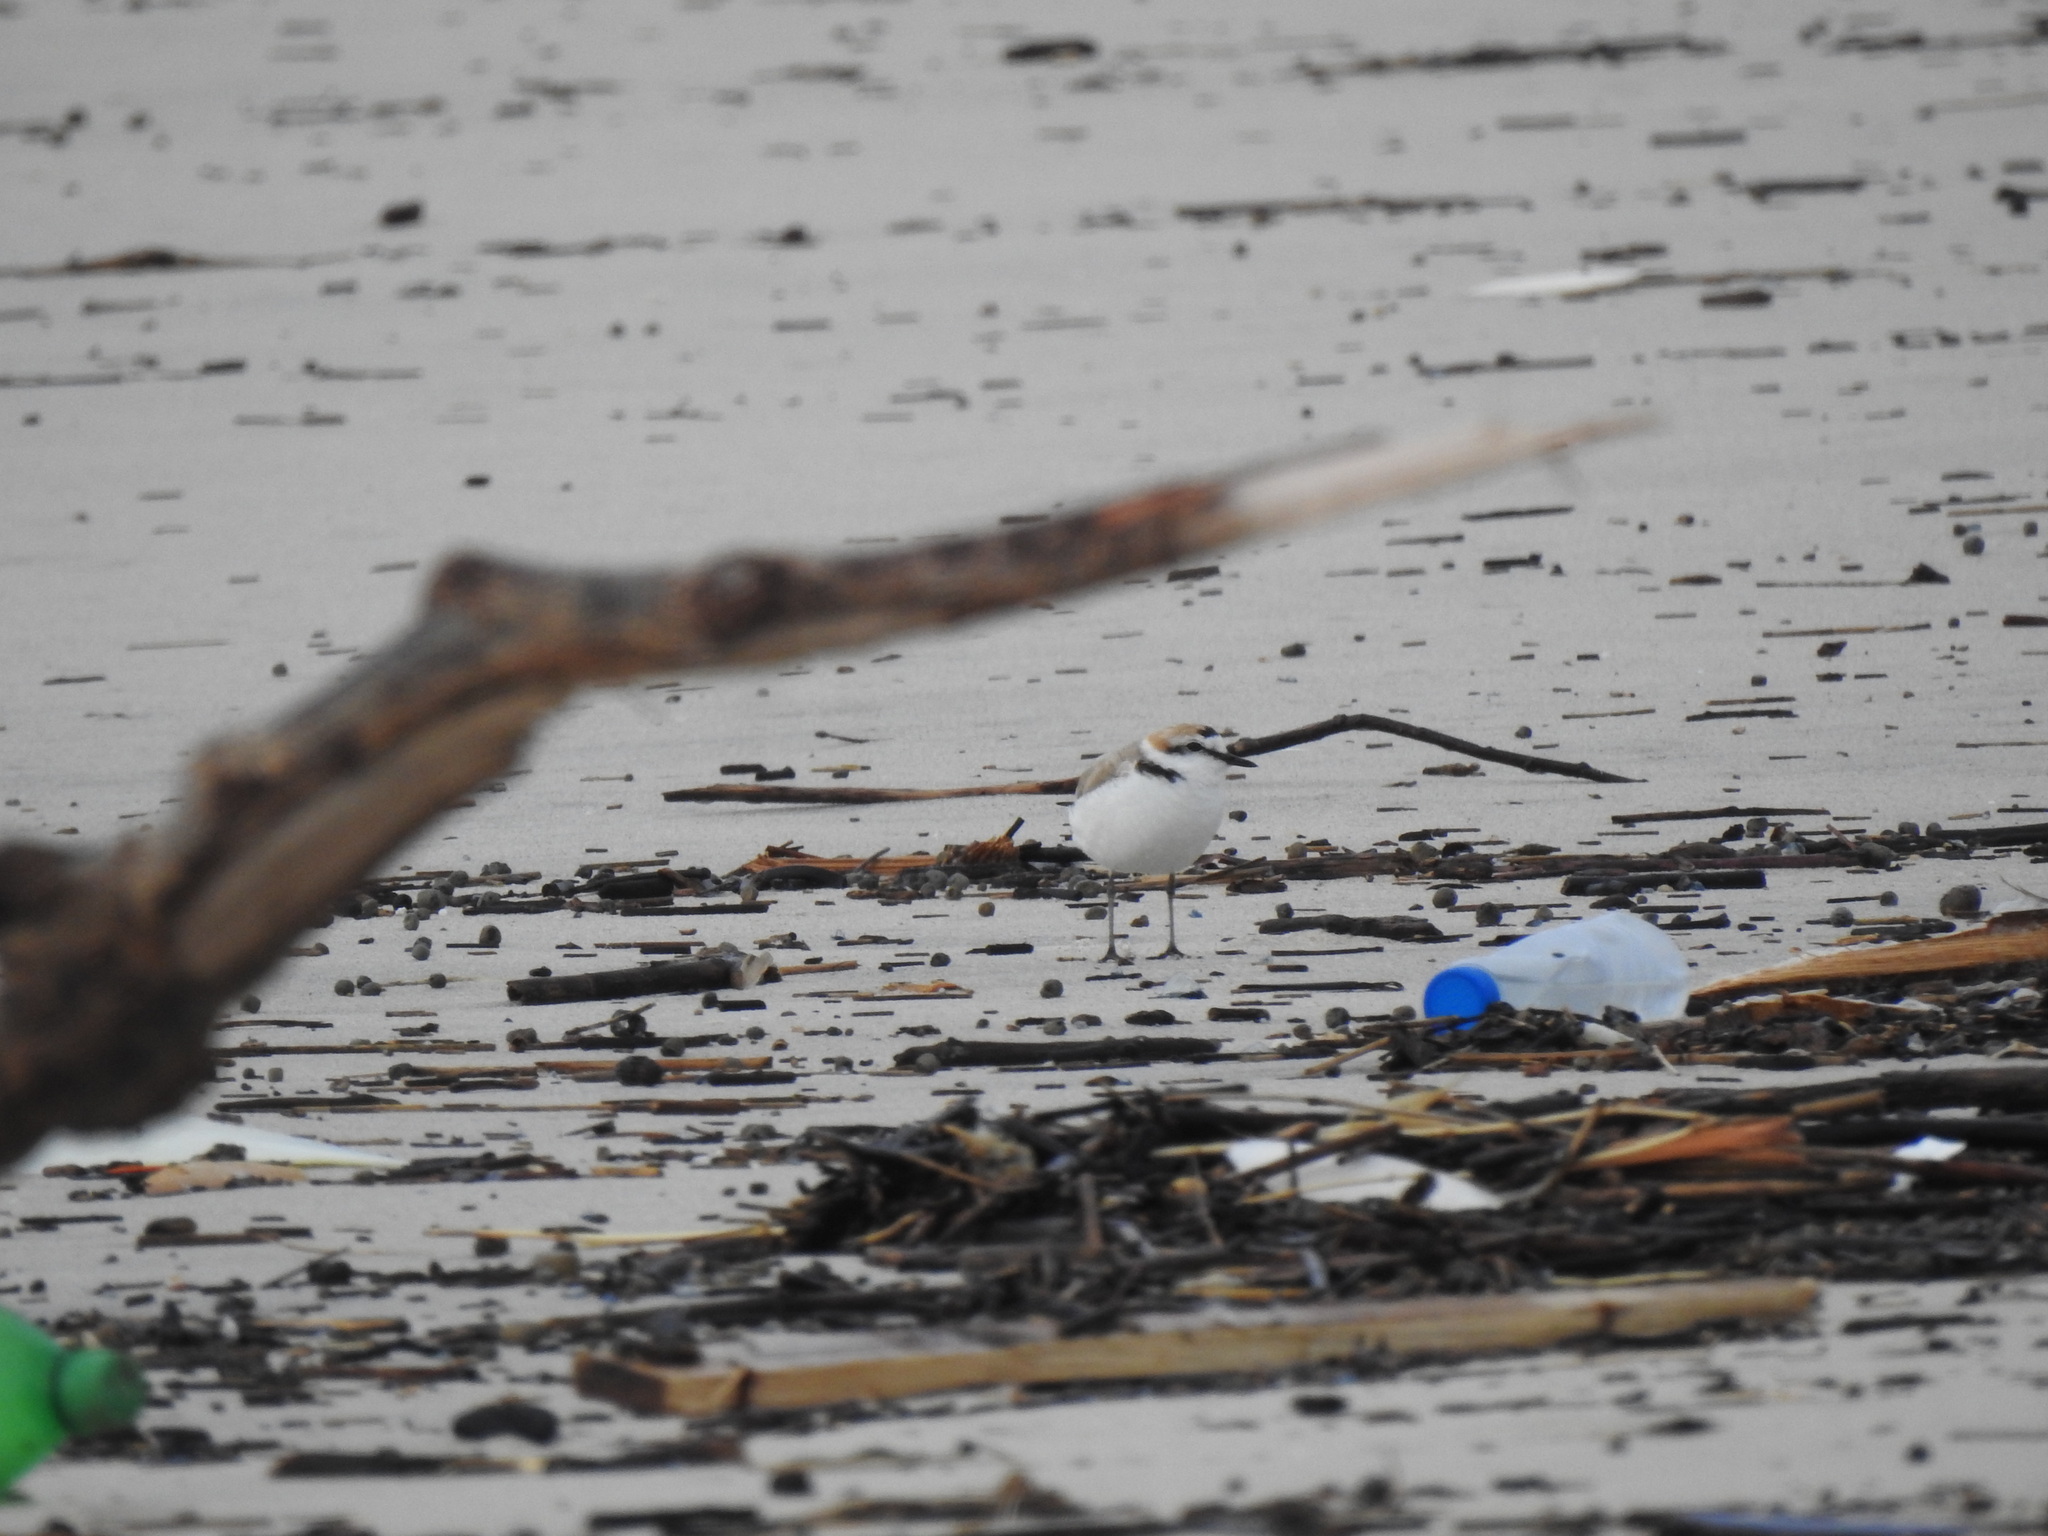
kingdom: Animalia
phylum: Chordata
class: Aves
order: Charadriiformes
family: Charadriidae
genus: Charadrius
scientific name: Charadrius alexandrinus
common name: Kentish plover
